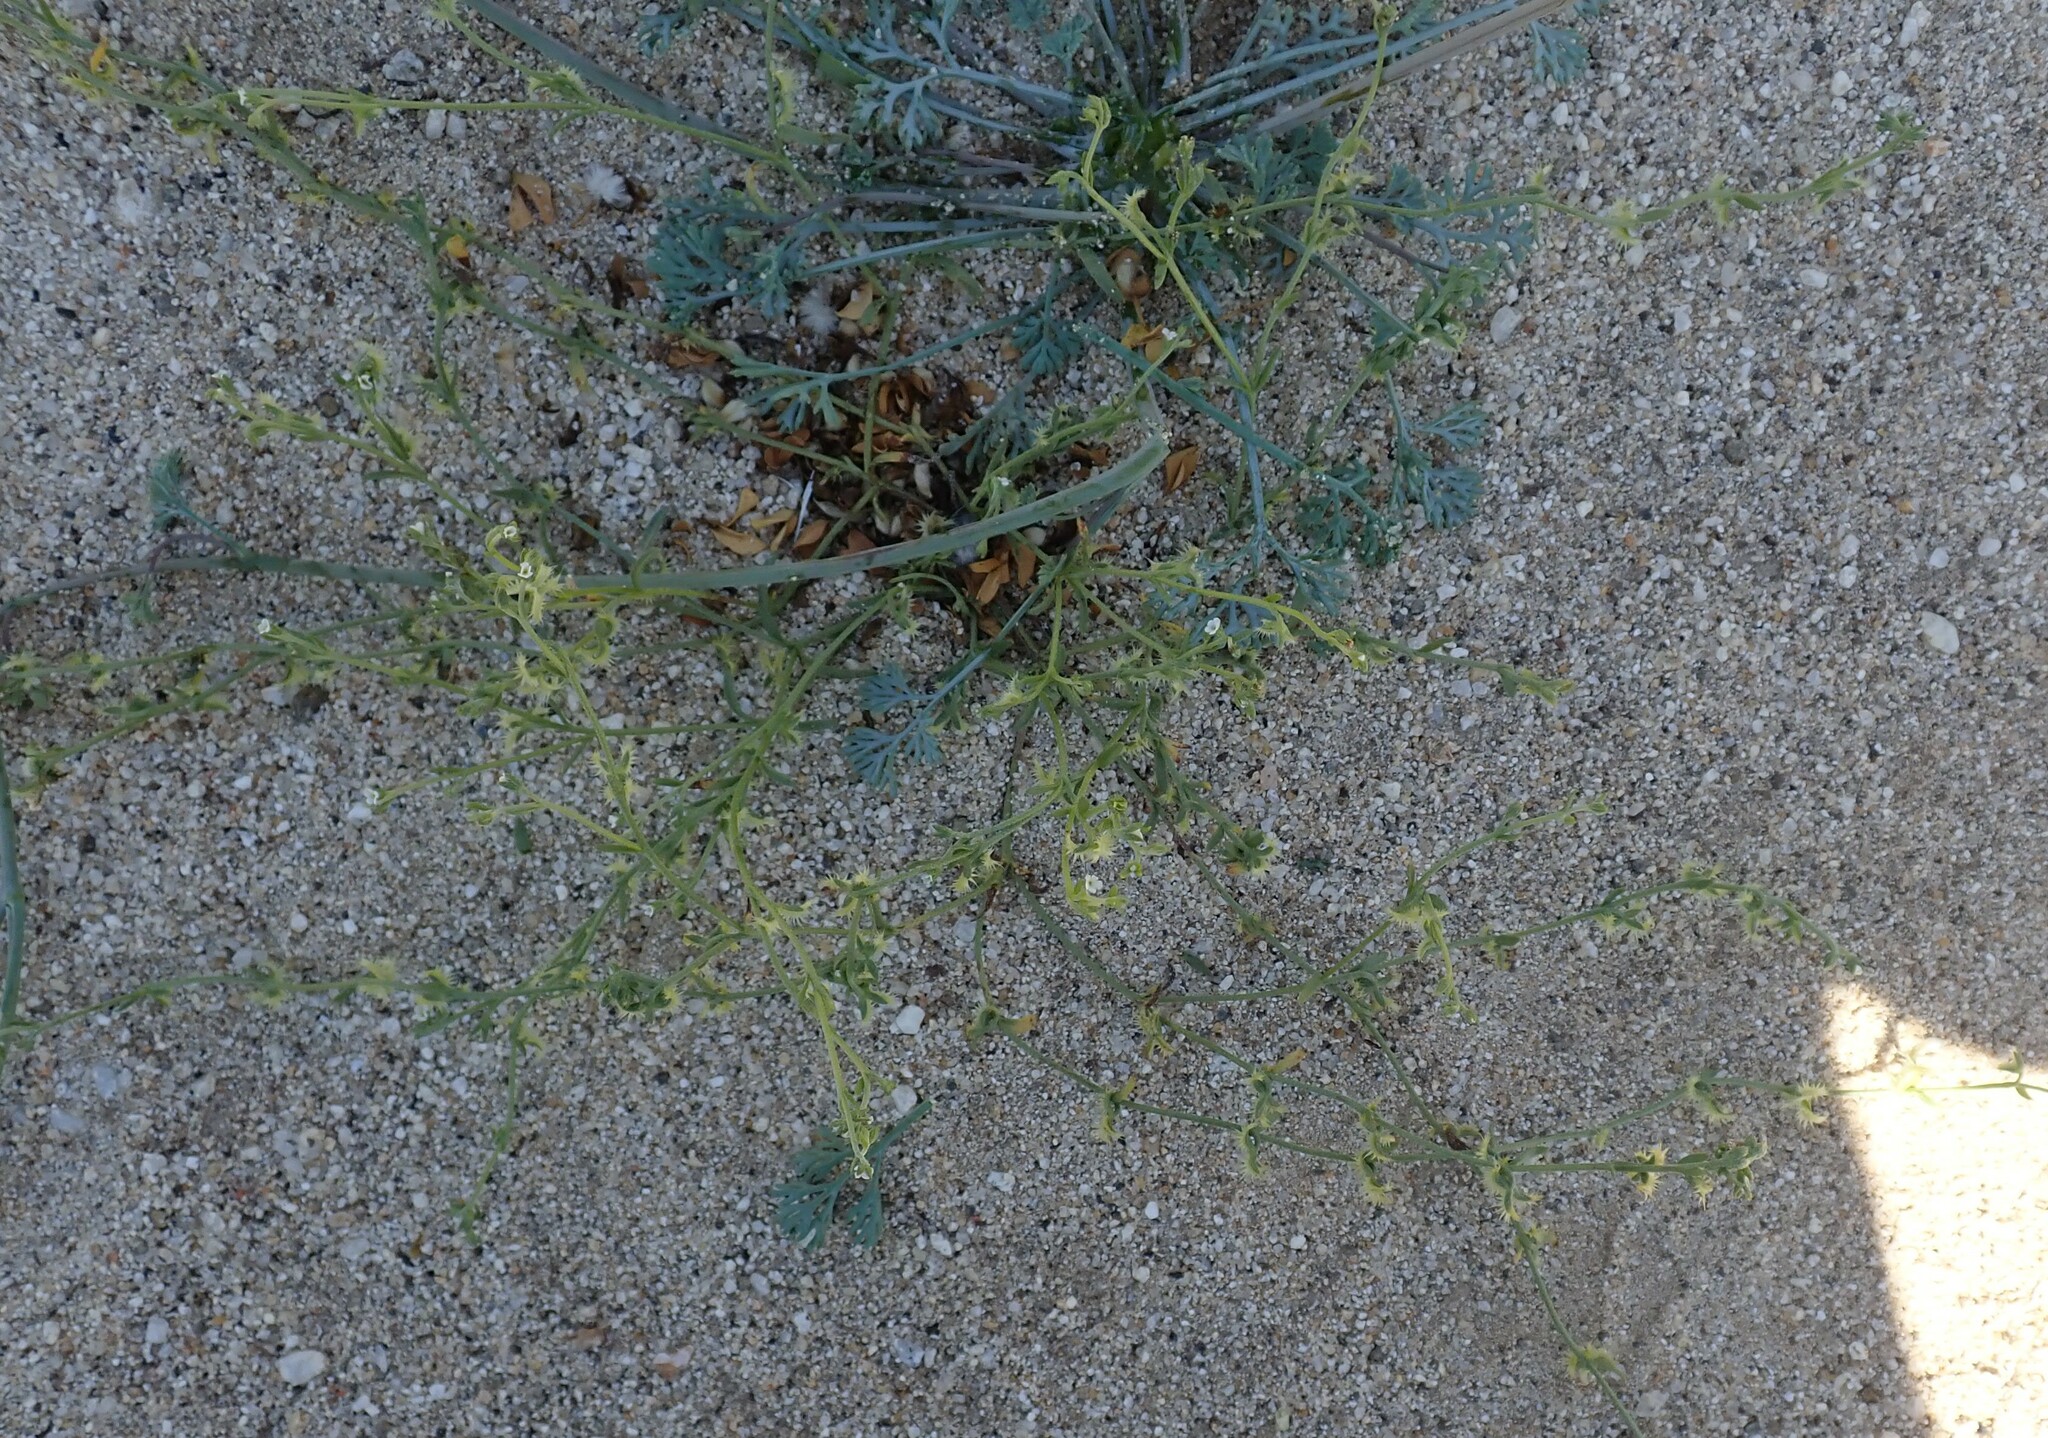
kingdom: Plantae
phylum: Tracheophyta
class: Magnoliopsida
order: Boraginales
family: Boraginaceae
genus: Pectocarya
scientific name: Pectocarya recurvata
